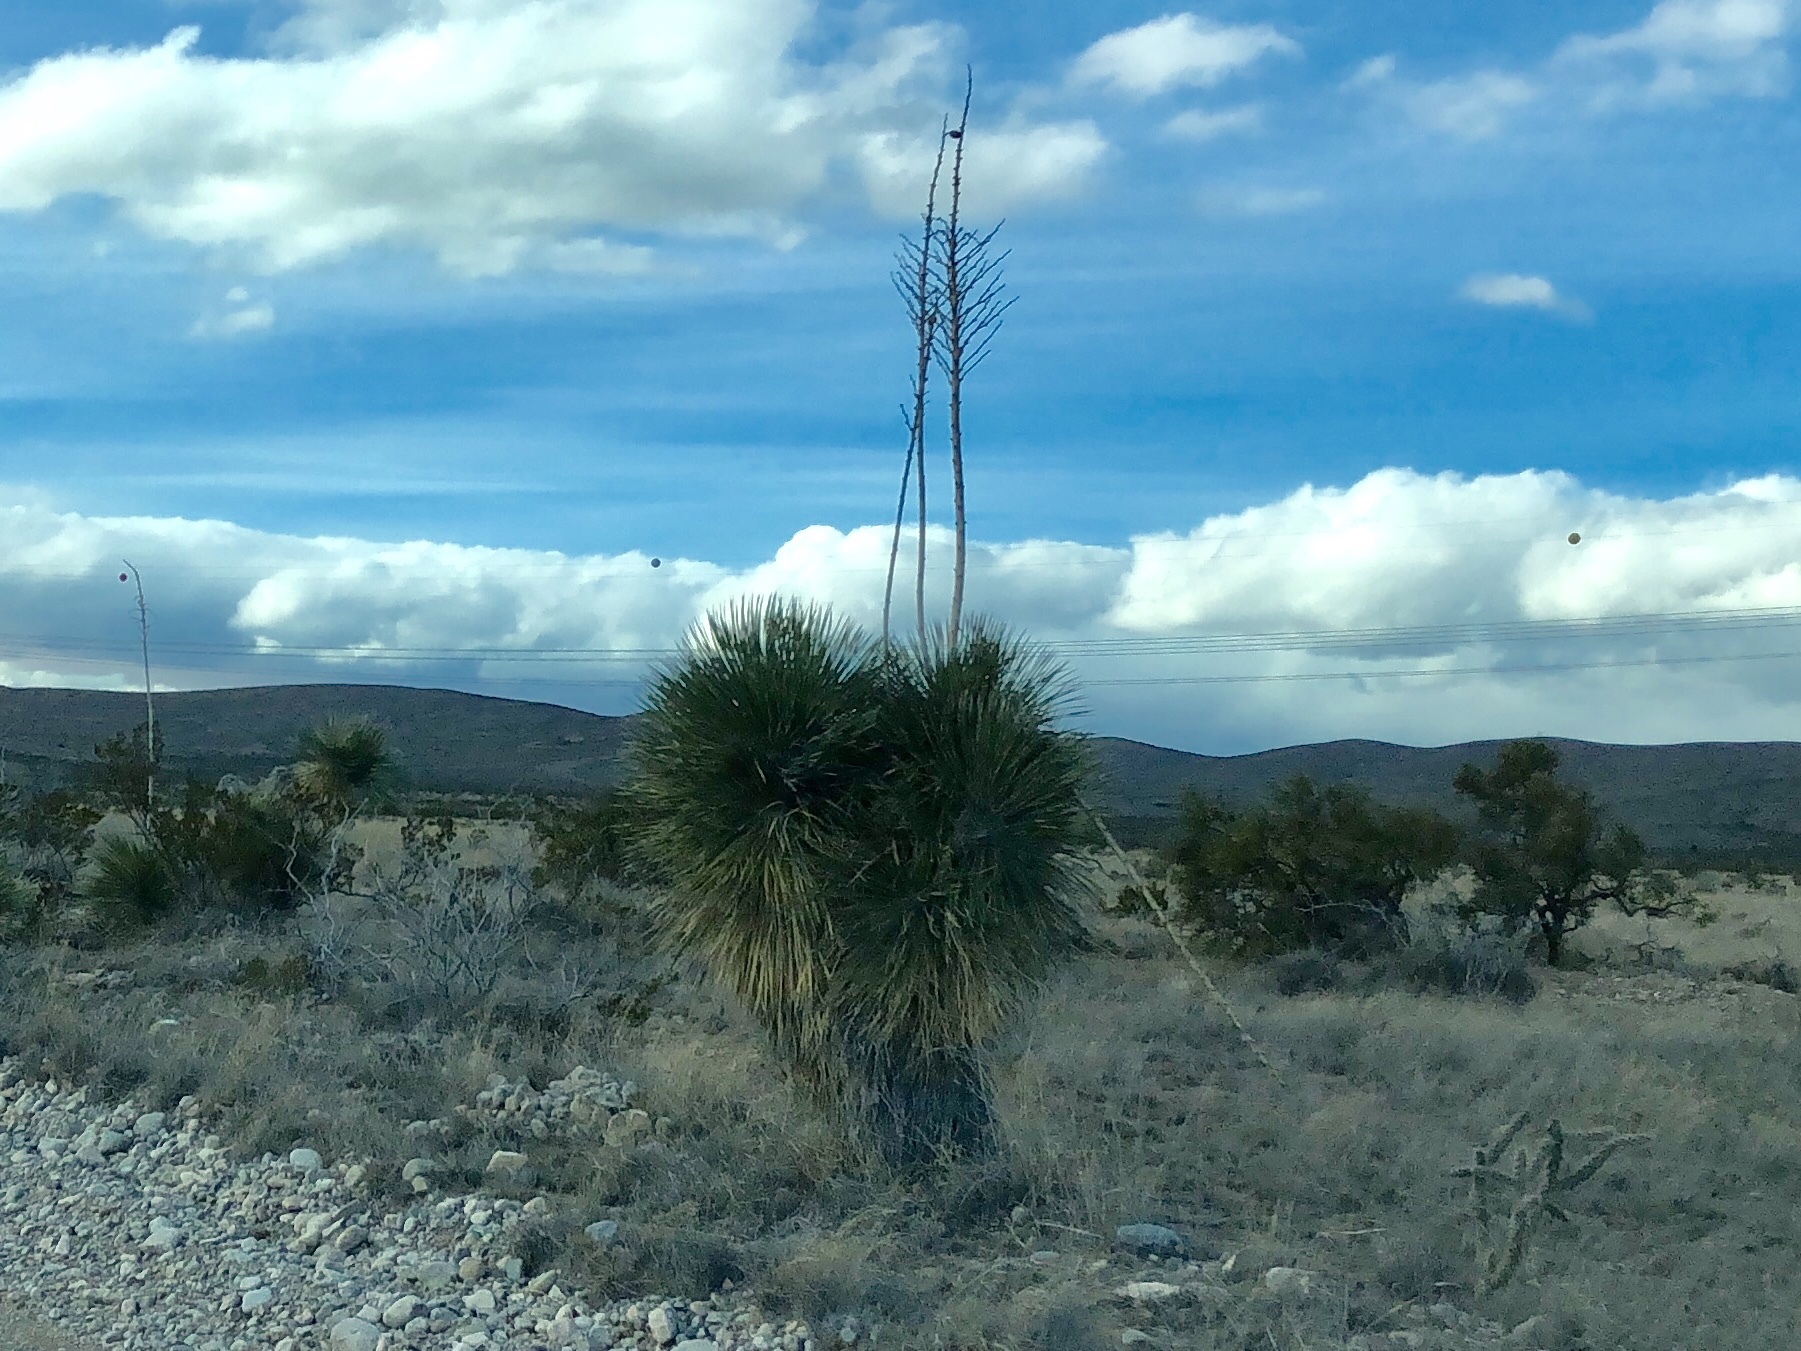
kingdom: Plantae
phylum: Tracheophyta
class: Liliopsida
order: Asparagales
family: Asparagaceae
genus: Yucca
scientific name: Yucca elata
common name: Palmella
